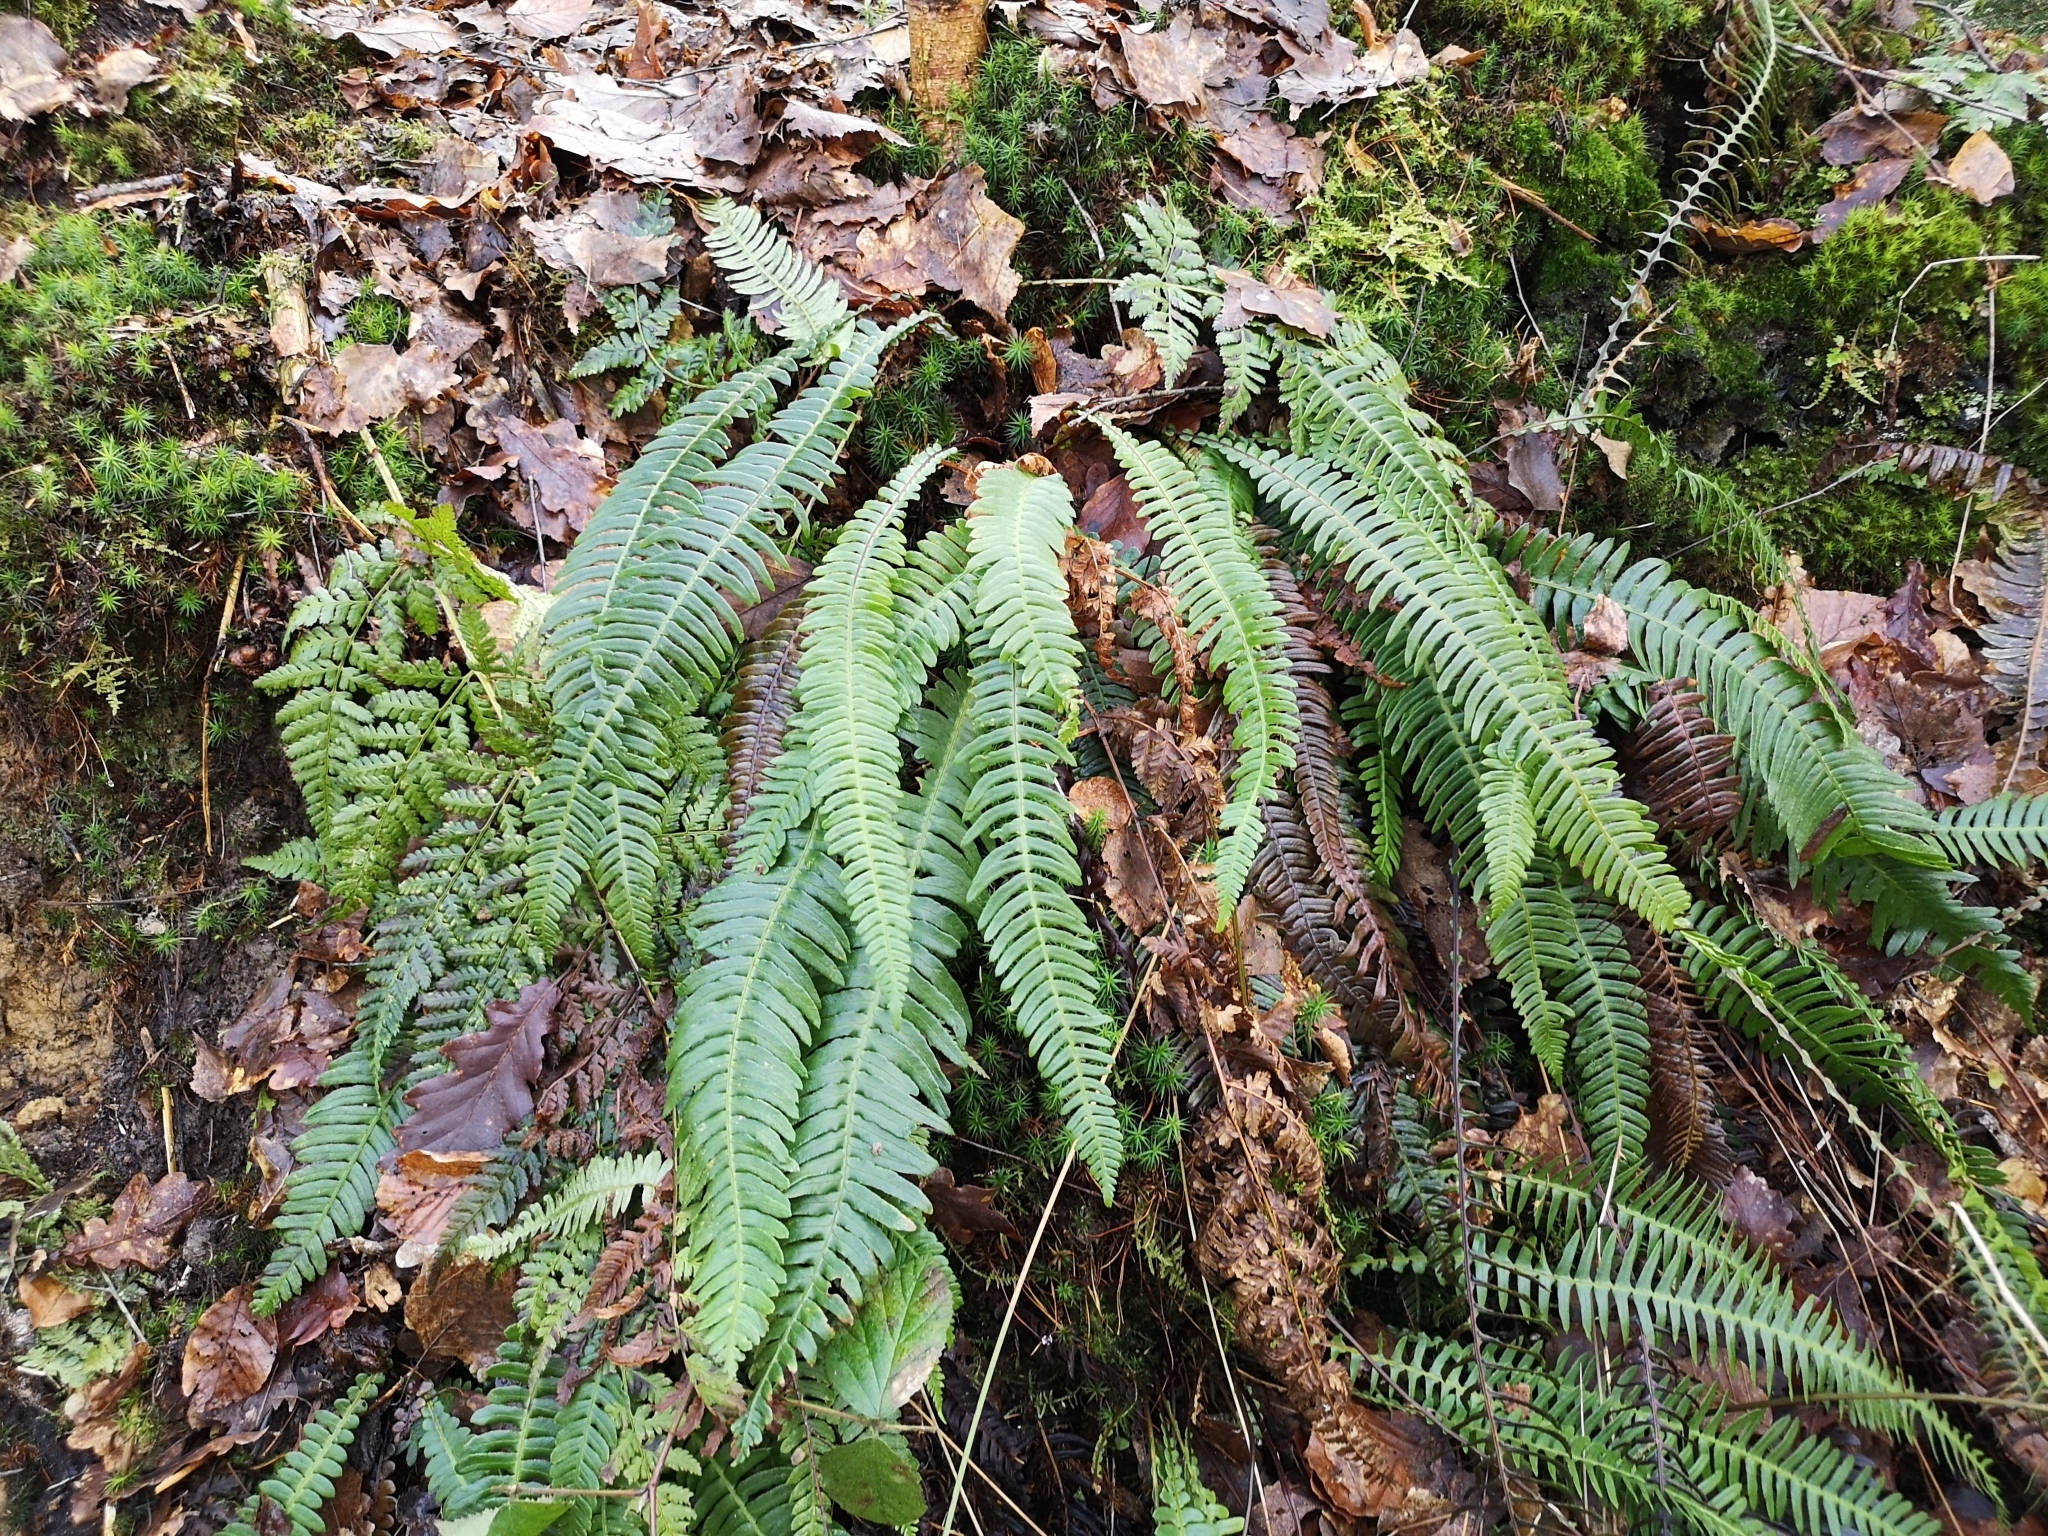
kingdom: Plantae
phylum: Tracheophyta
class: Polypodiopsida
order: Polypodiales
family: Blechnaceae
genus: Struthiopteris
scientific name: Struthiopteris spicant
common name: Deer fern
